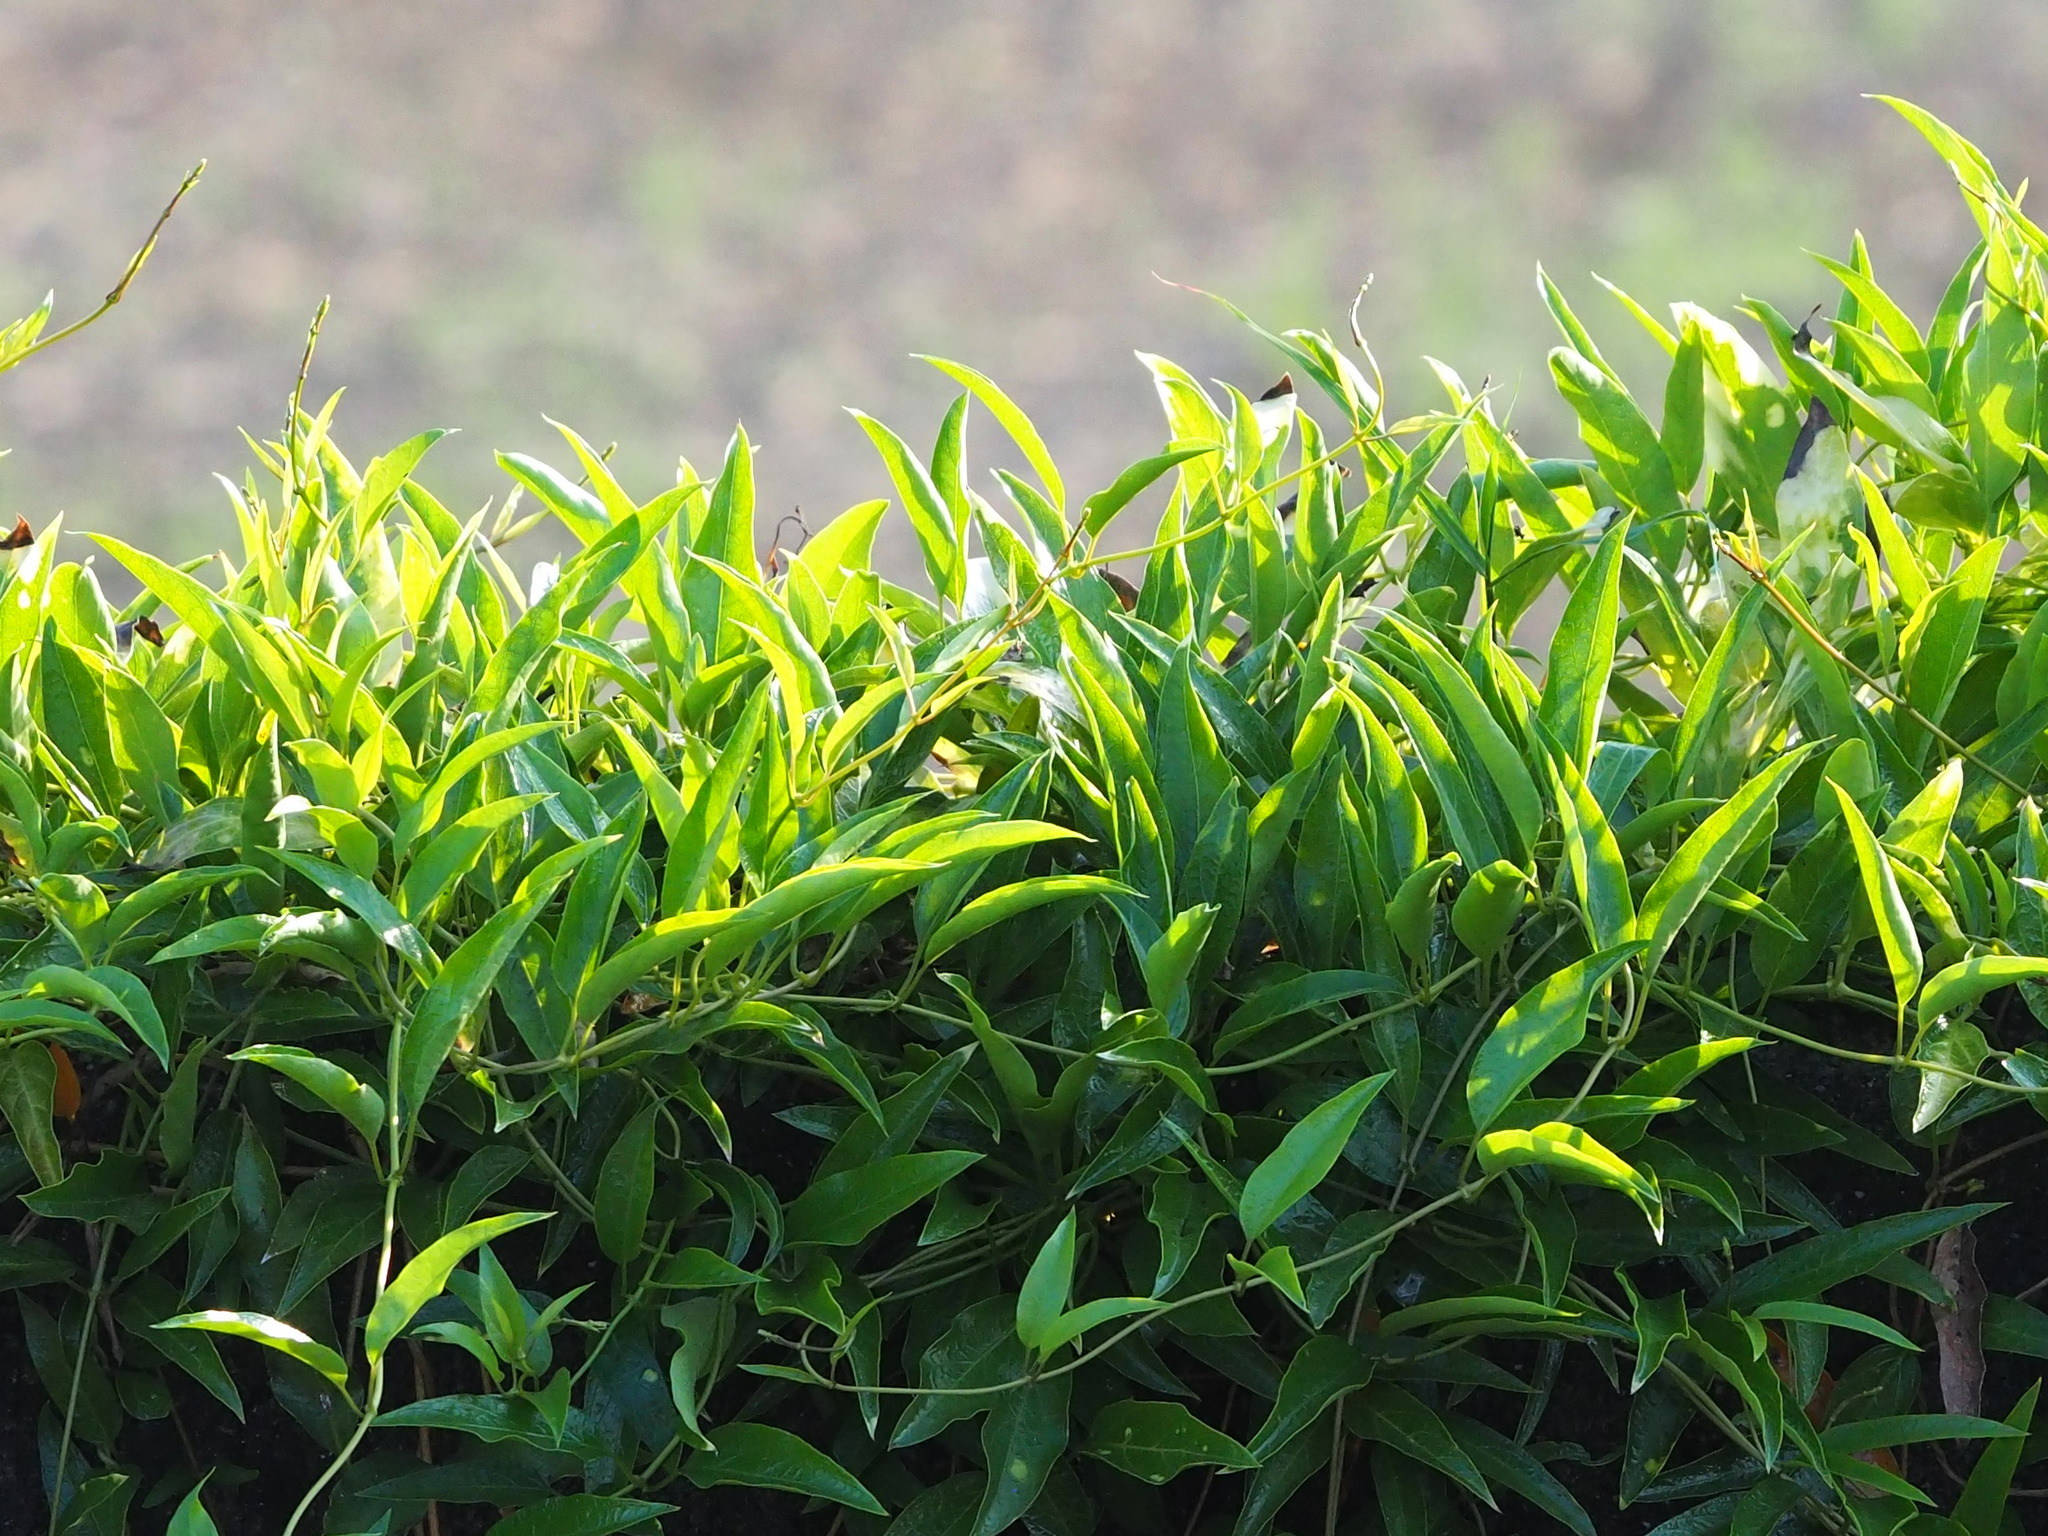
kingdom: Plantae
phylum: Tracheophyta
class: Magnoliopsida
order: Gentianales
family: Rubiaceae
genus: Paederia
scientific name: Paederia foetida
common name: Stinkvine
